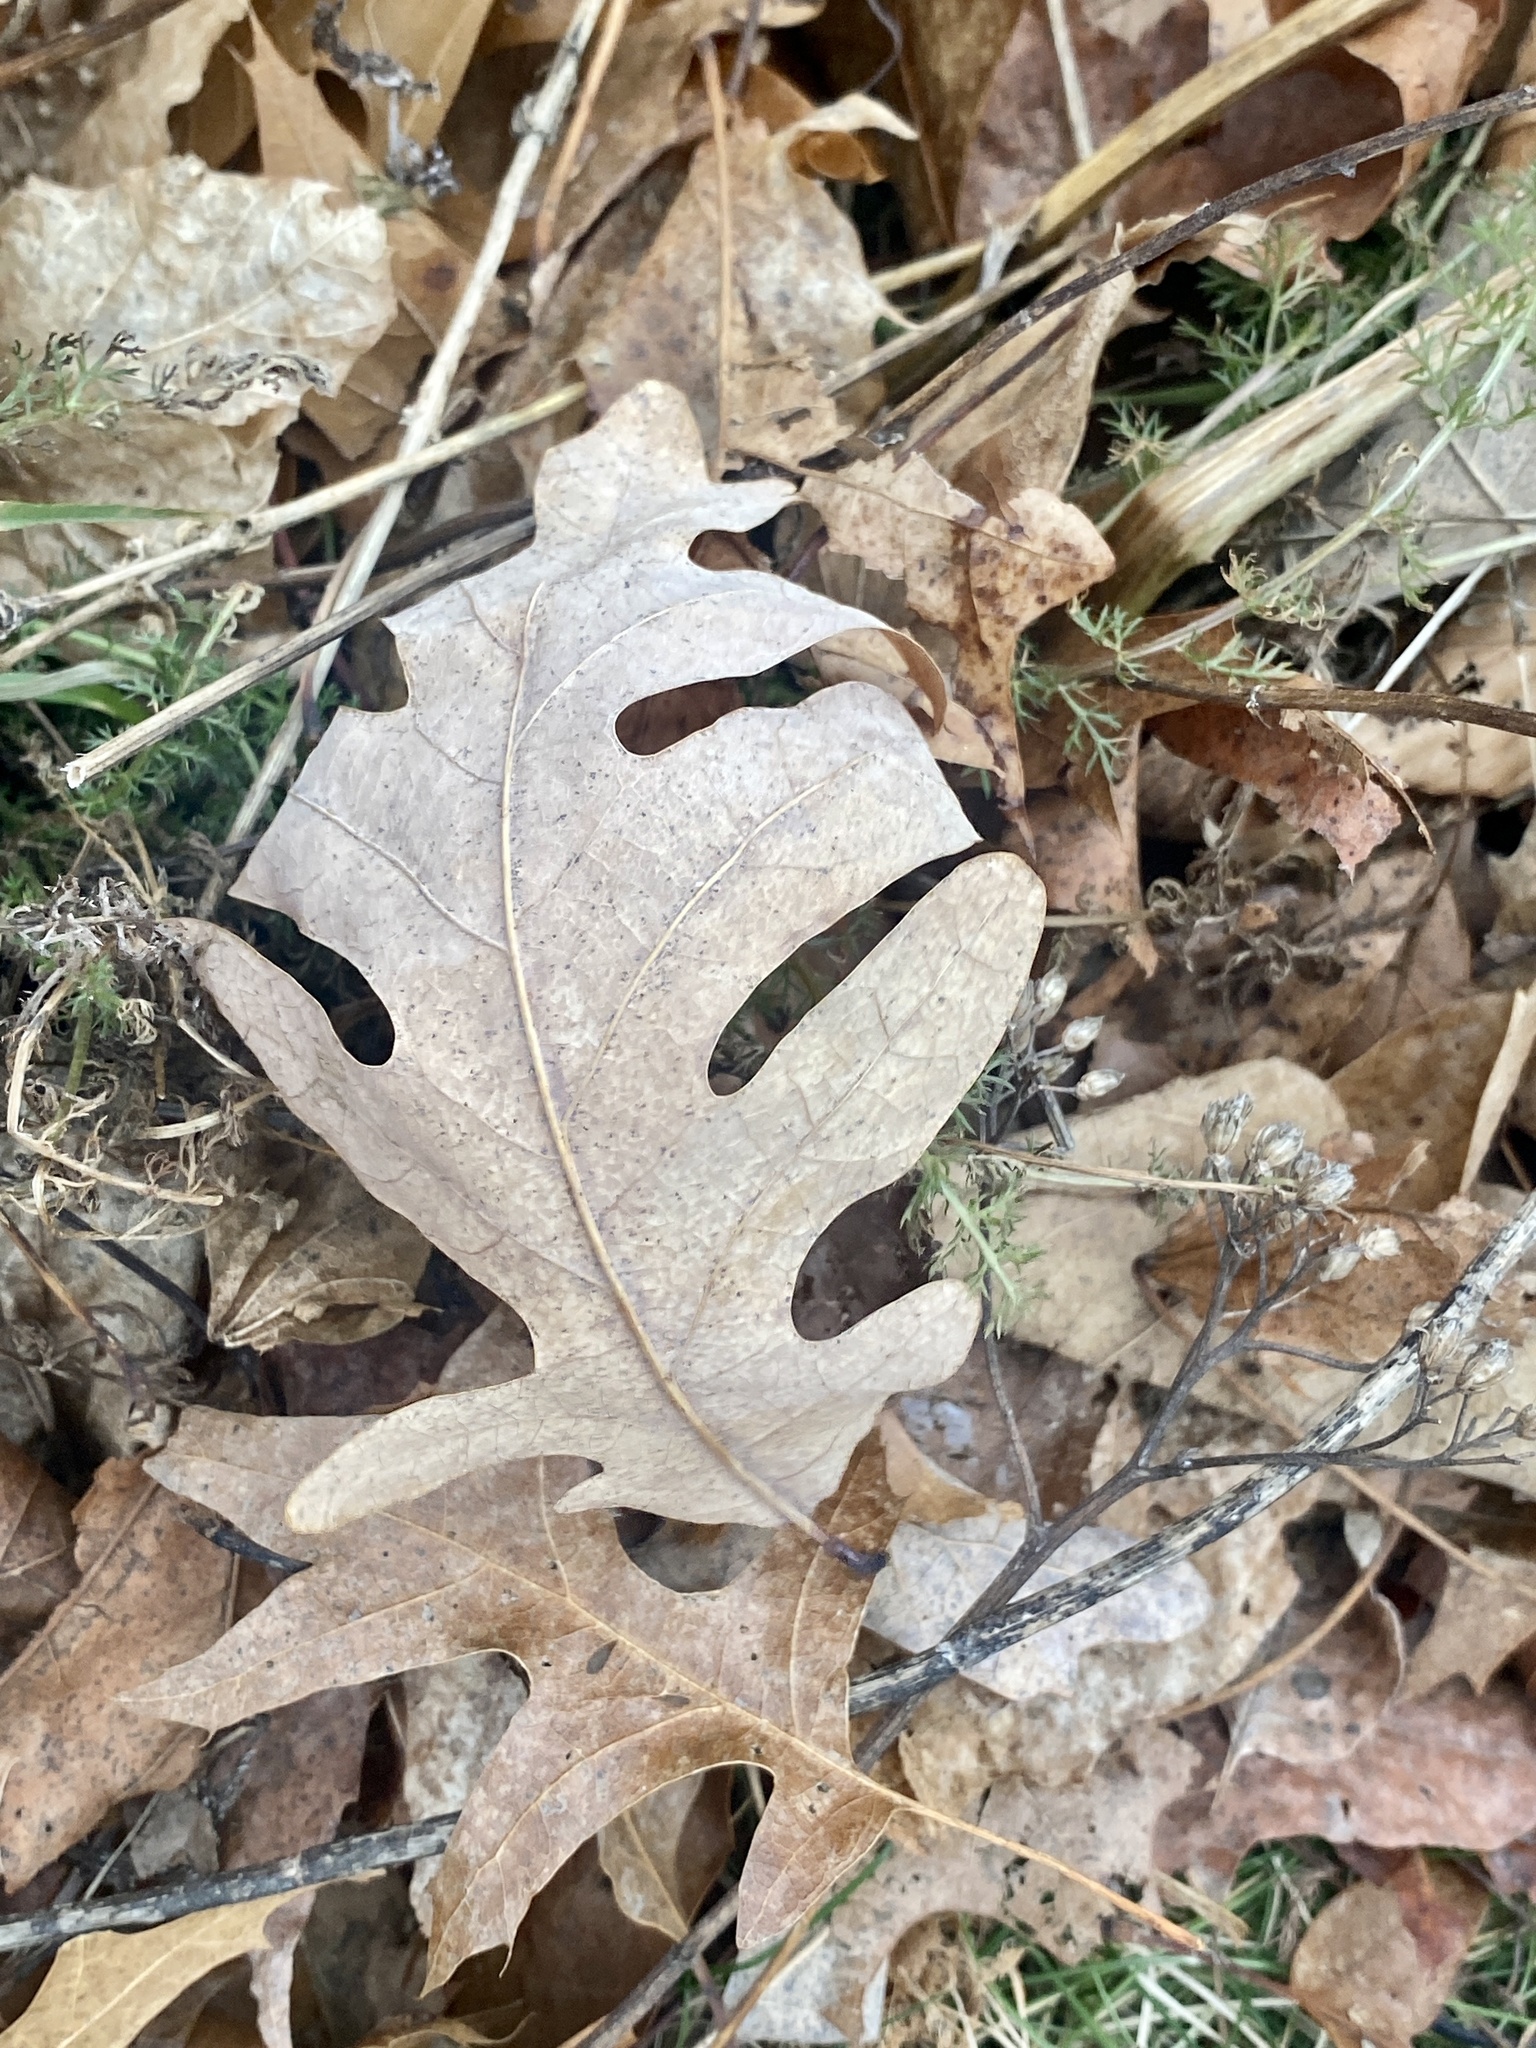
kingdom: Plantae
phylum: Tracheophyta
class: Magnoliopsida
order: Fagales
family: Fagaceae
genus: Quercus
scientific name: Quercus alba
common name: White oak
